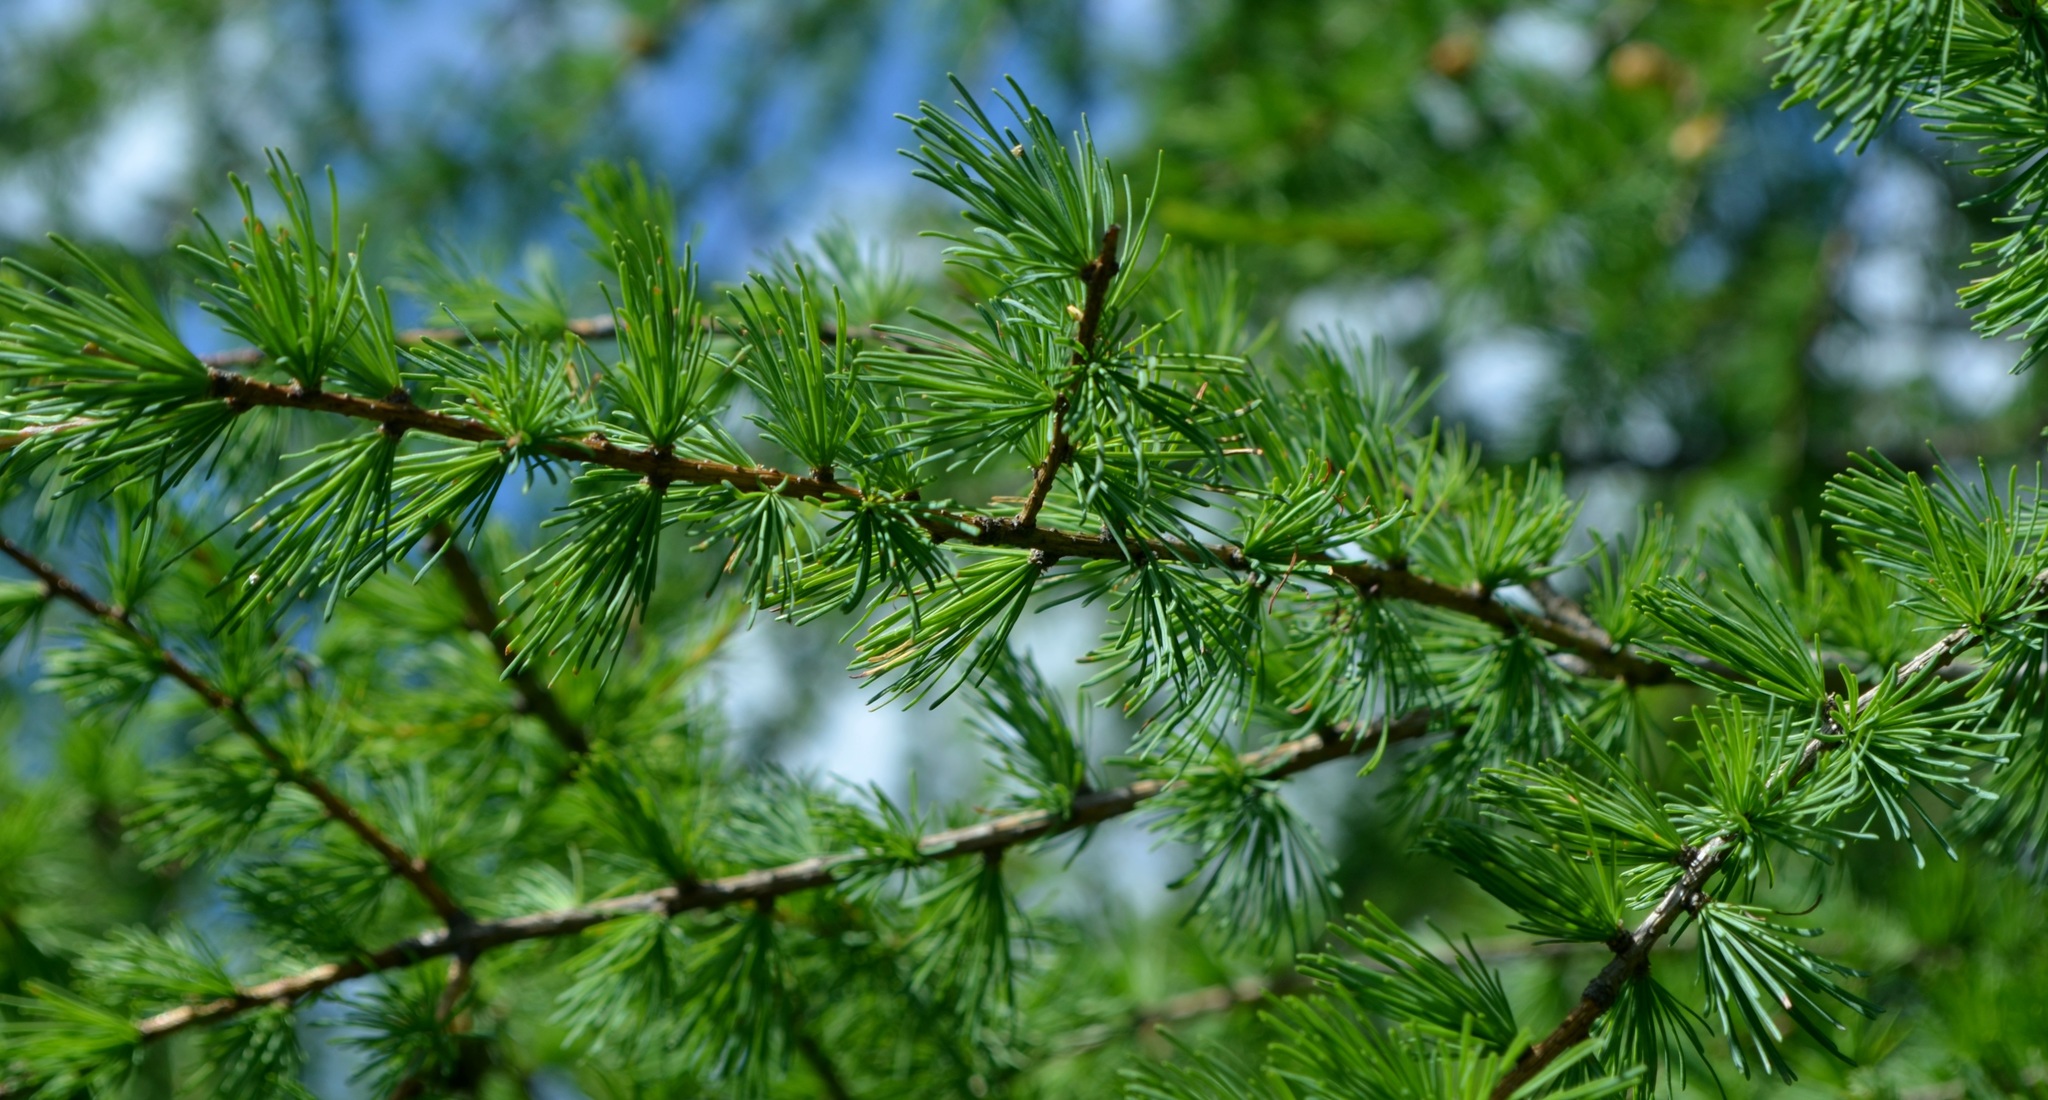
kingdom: Plantae
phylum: Tracheophyta
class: Pinopsida
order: Pinales
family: Pinaceae
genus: Larix
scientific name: Larix laricina
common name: American larch
